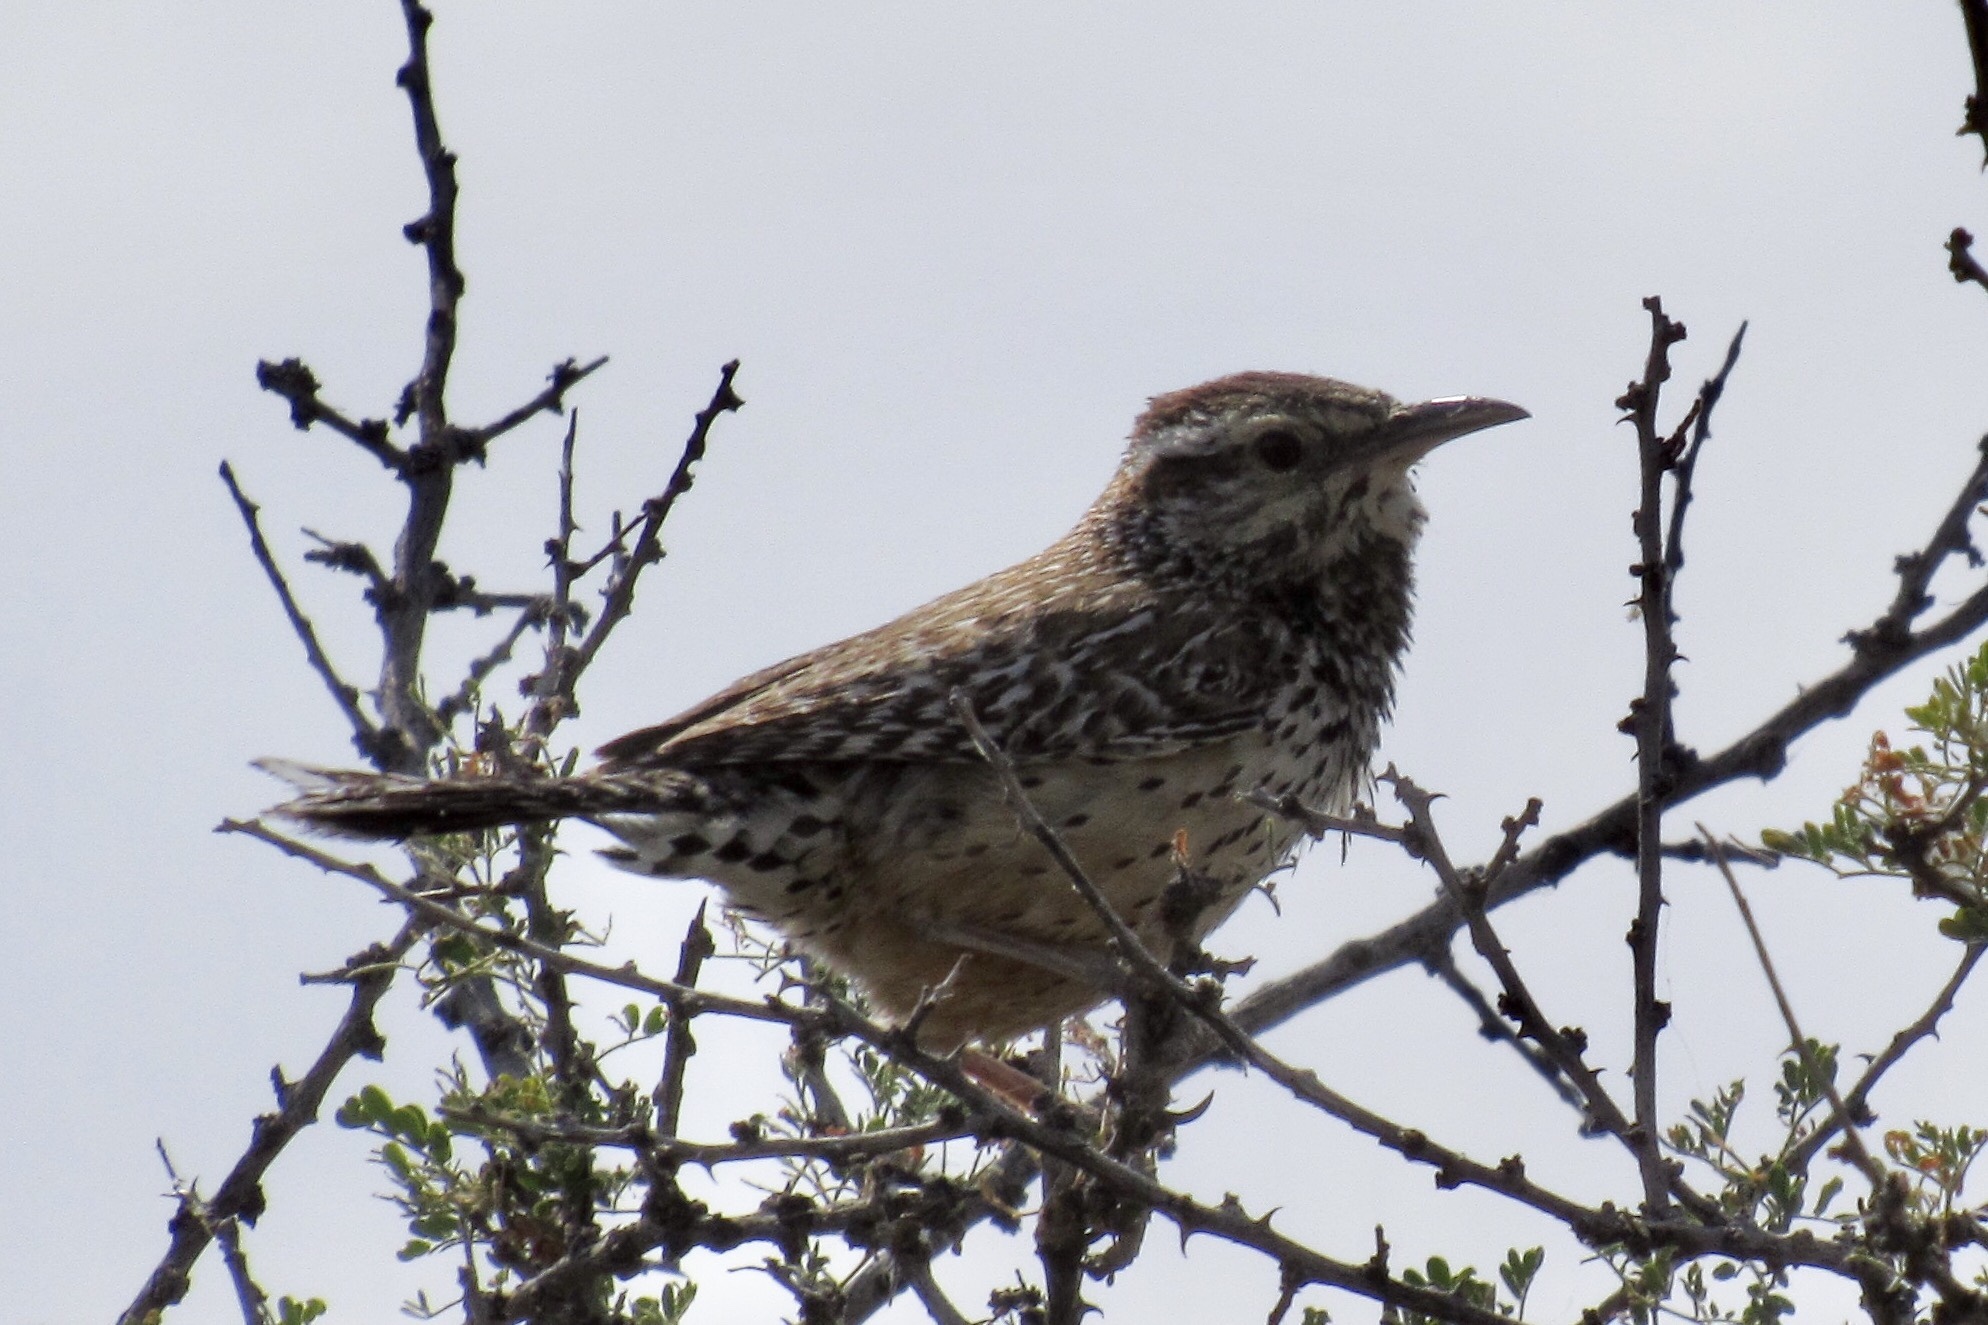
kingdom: Animalia
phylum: Chordata
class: Aves
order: Passeriformes
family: Troglodytidae
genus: Campylorhynchus
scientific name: Campylorhynchus brunneicapillus
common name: Cactus wren
